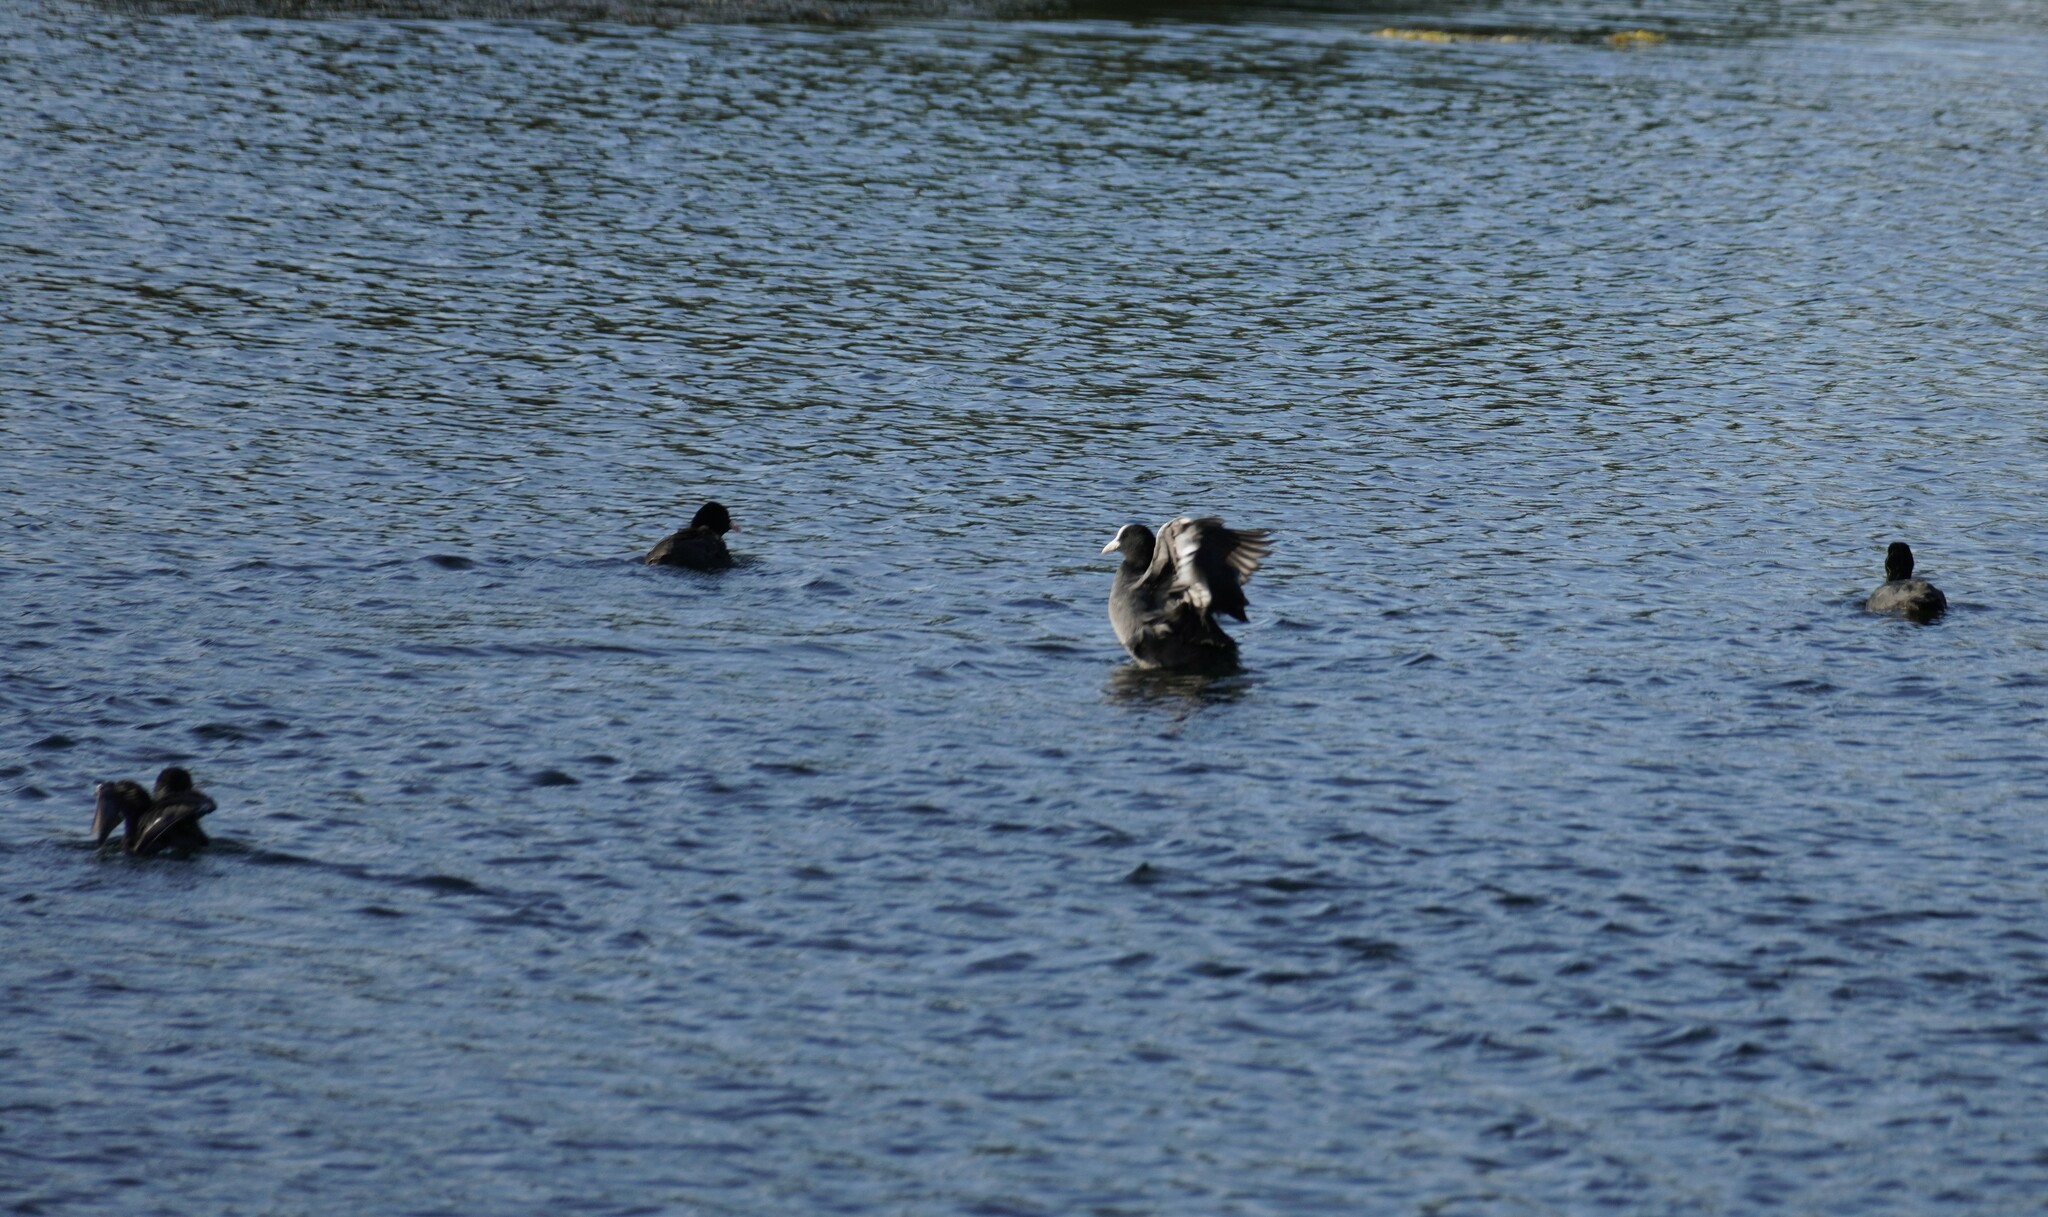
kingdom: Animalia
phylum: Chordata
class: Aves
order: Gruiformes
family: Rallidae
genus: Fulica
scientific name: Fulica atra
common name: Eurasian coot
